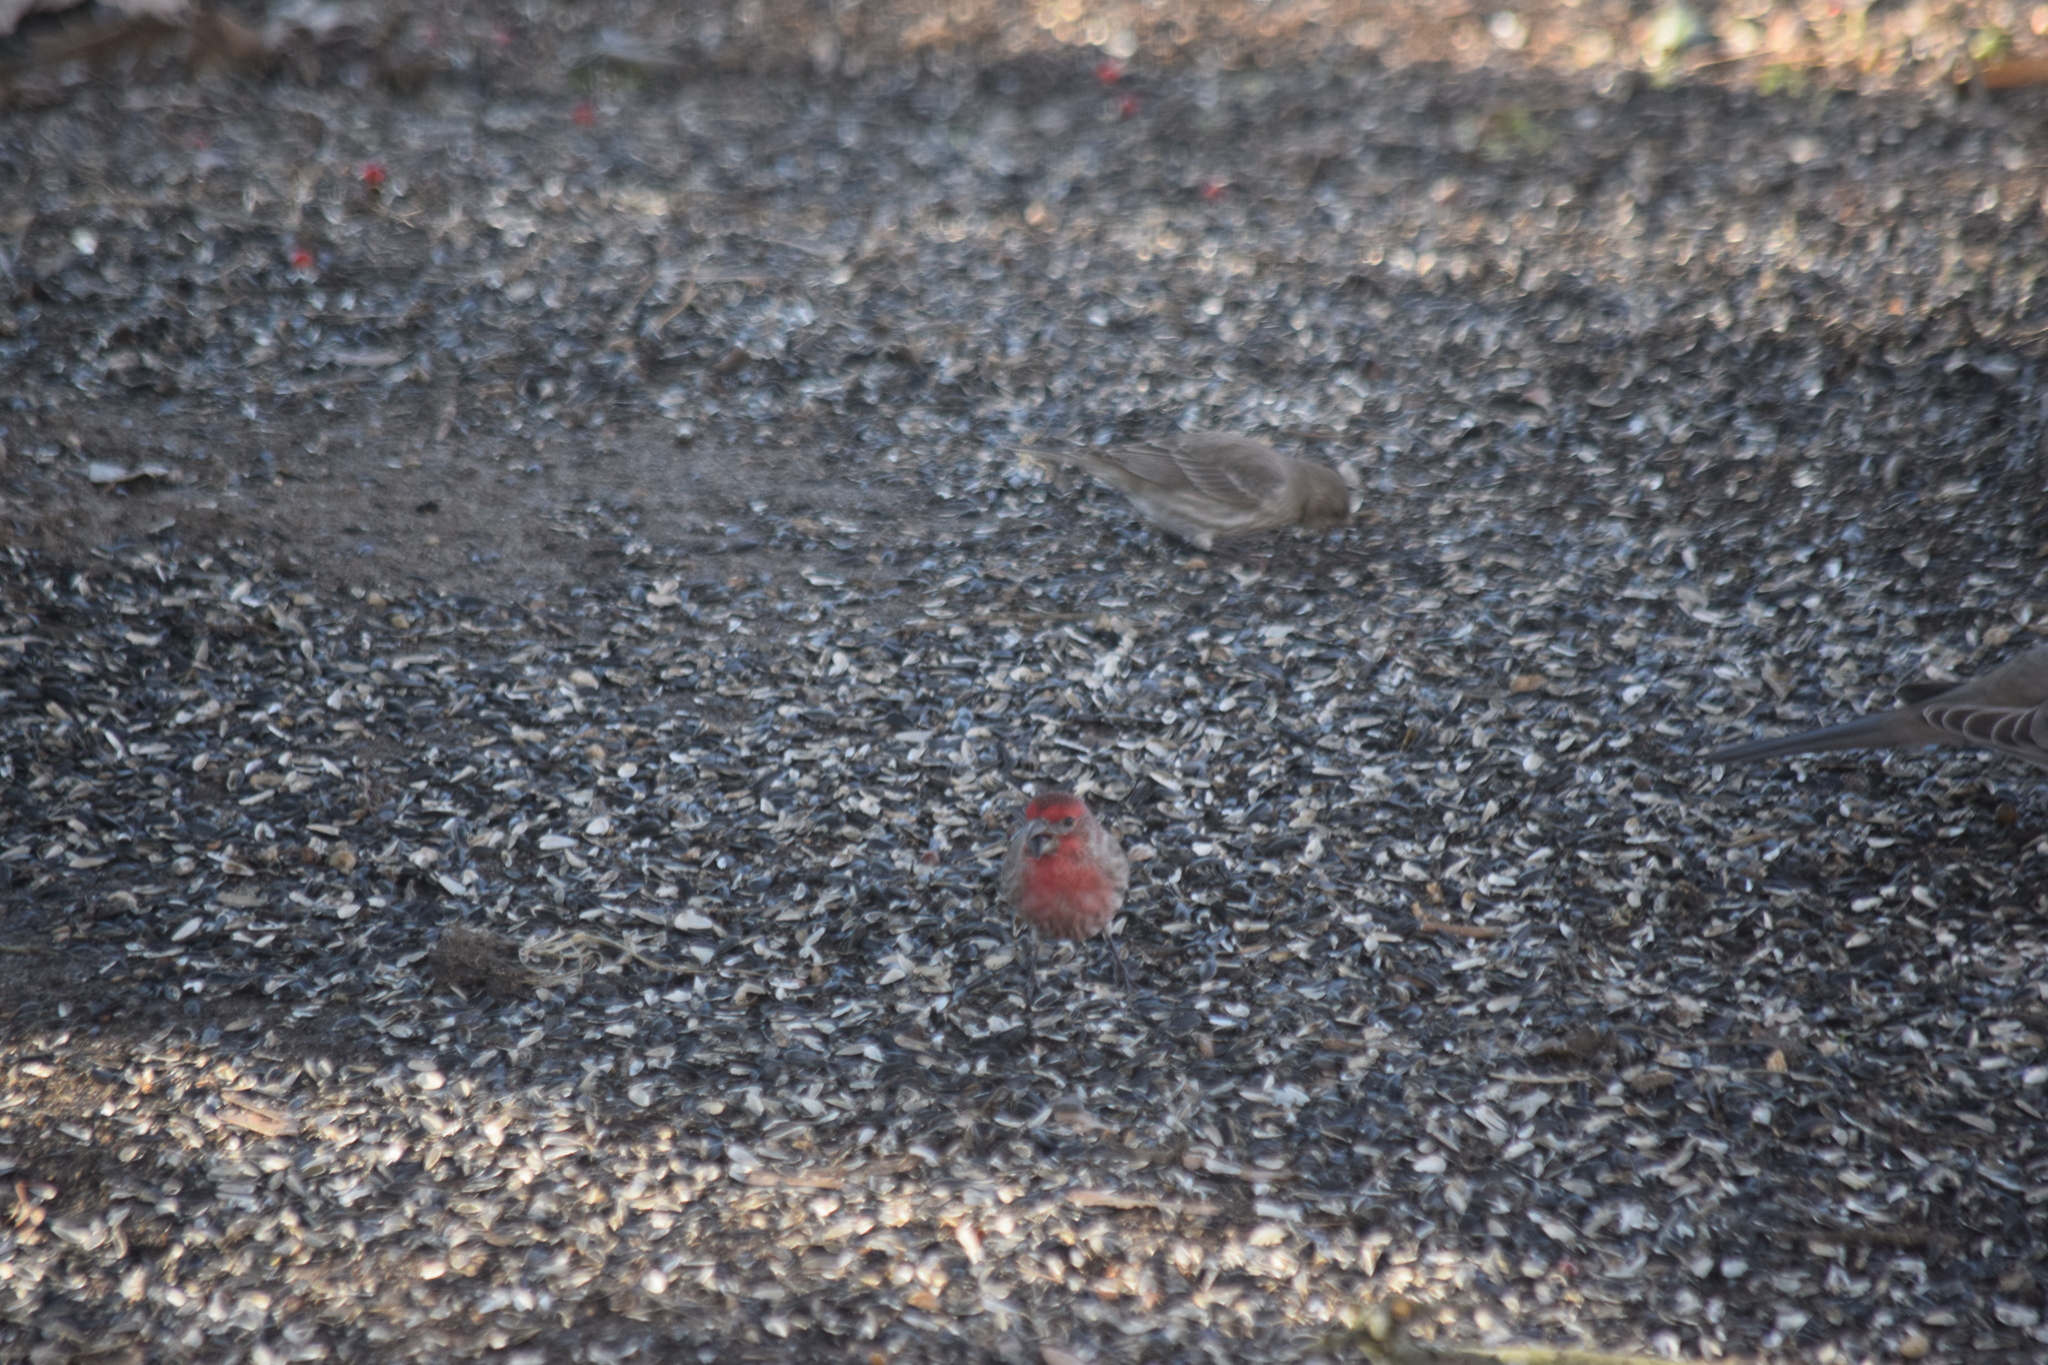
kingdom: Animalia
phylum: Chordata
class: Aves
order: Passeriformes
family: Fringillidae
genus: Haemorhous
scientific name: Haemorhous mexicanus
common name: House finch
